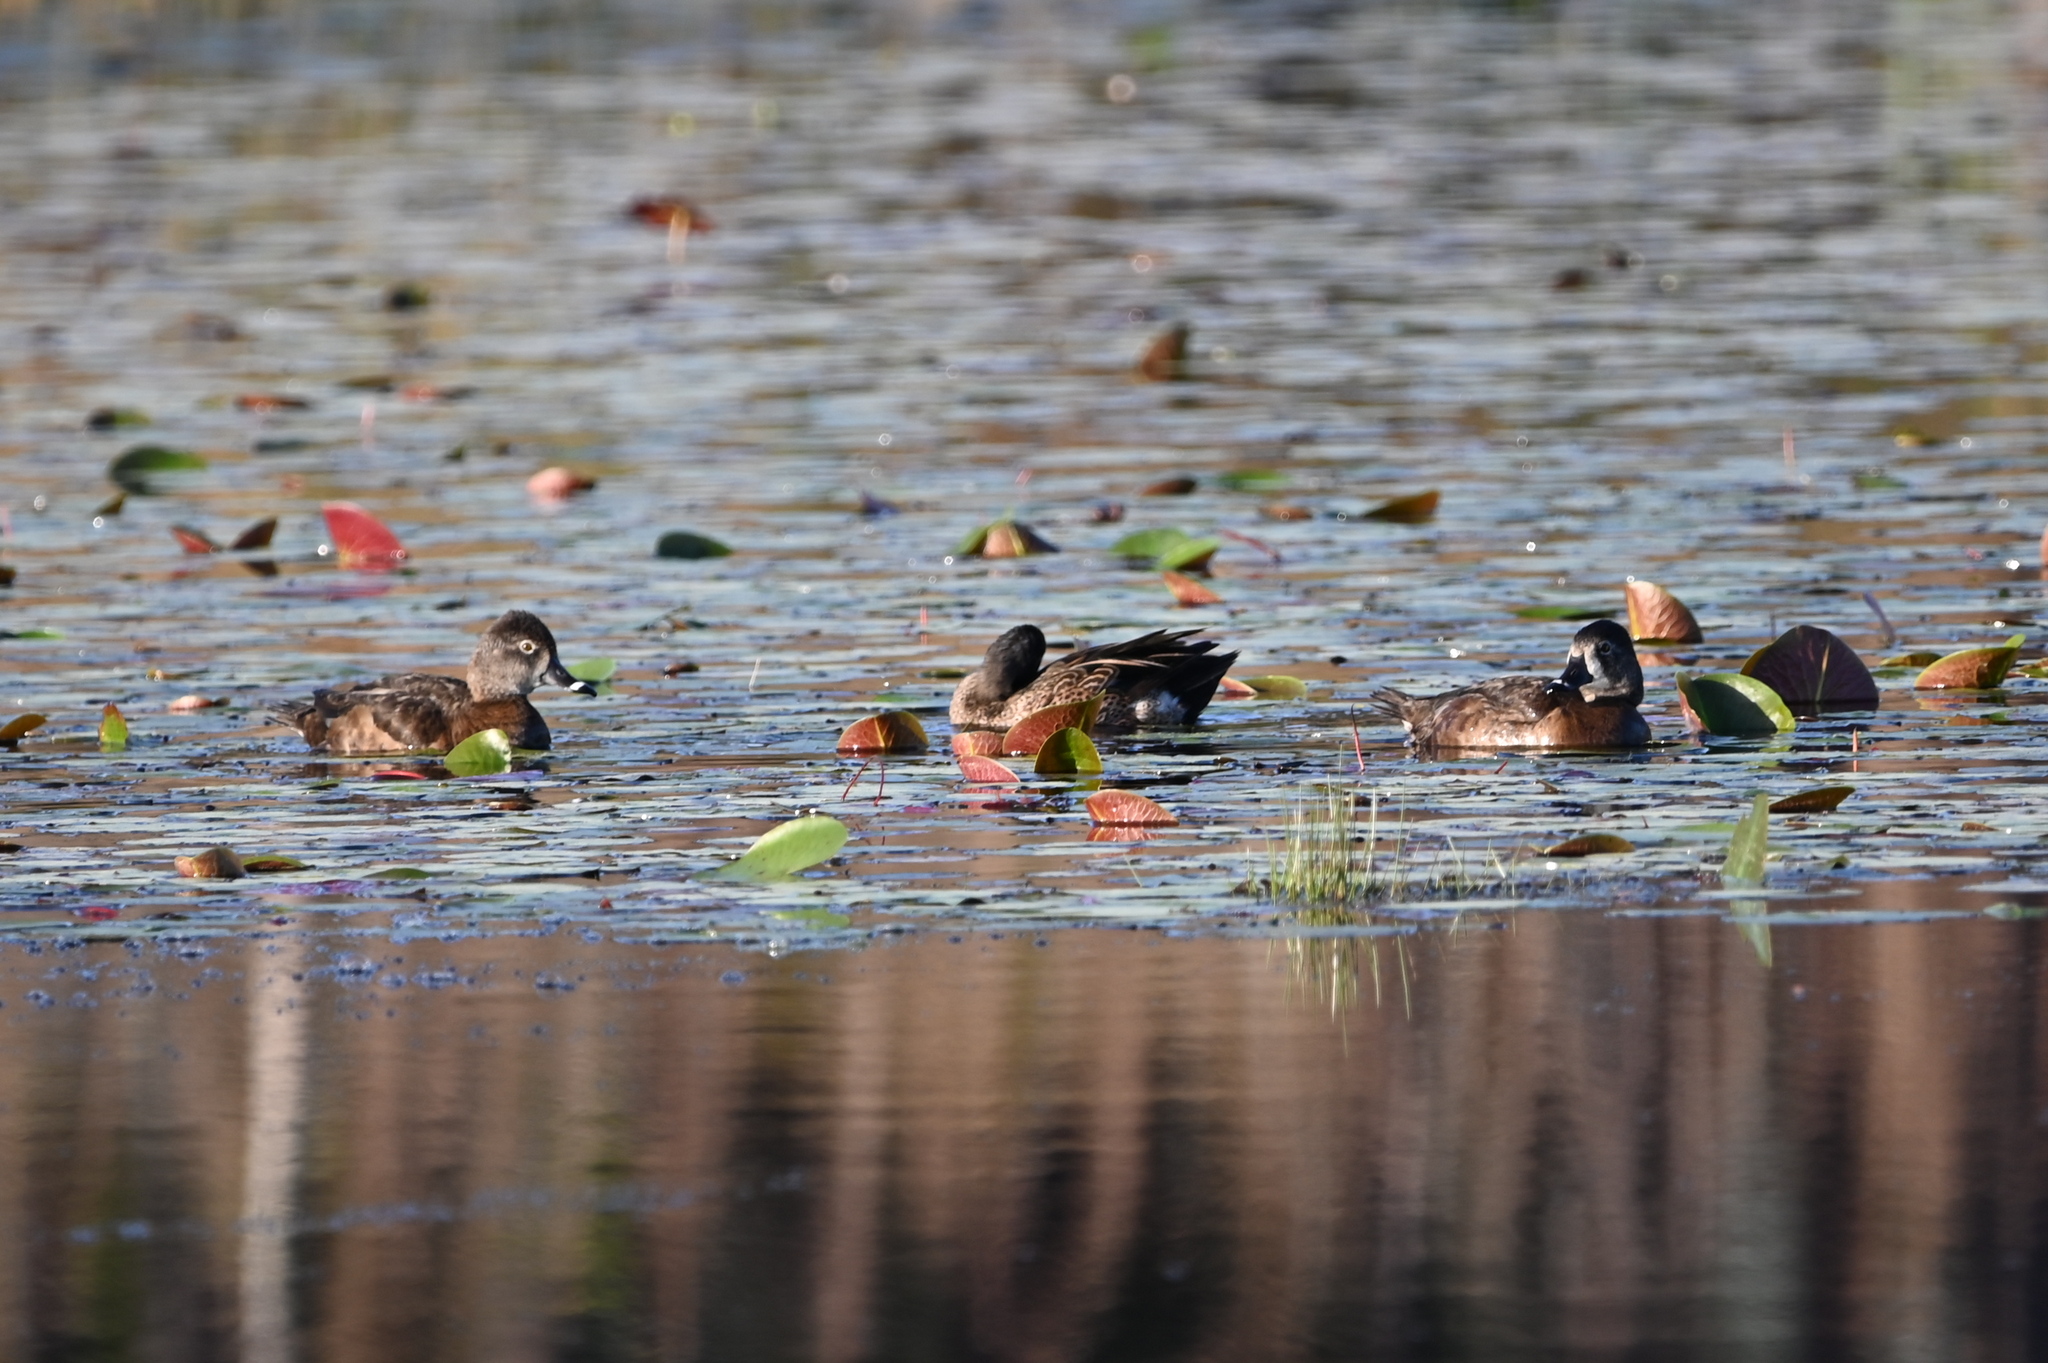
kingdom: Animalia
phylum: Chordata
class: Aves
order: Anseriformes
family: Anatidae
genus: Aythya
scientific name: Aythya collaris
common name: Ring-necked duck
